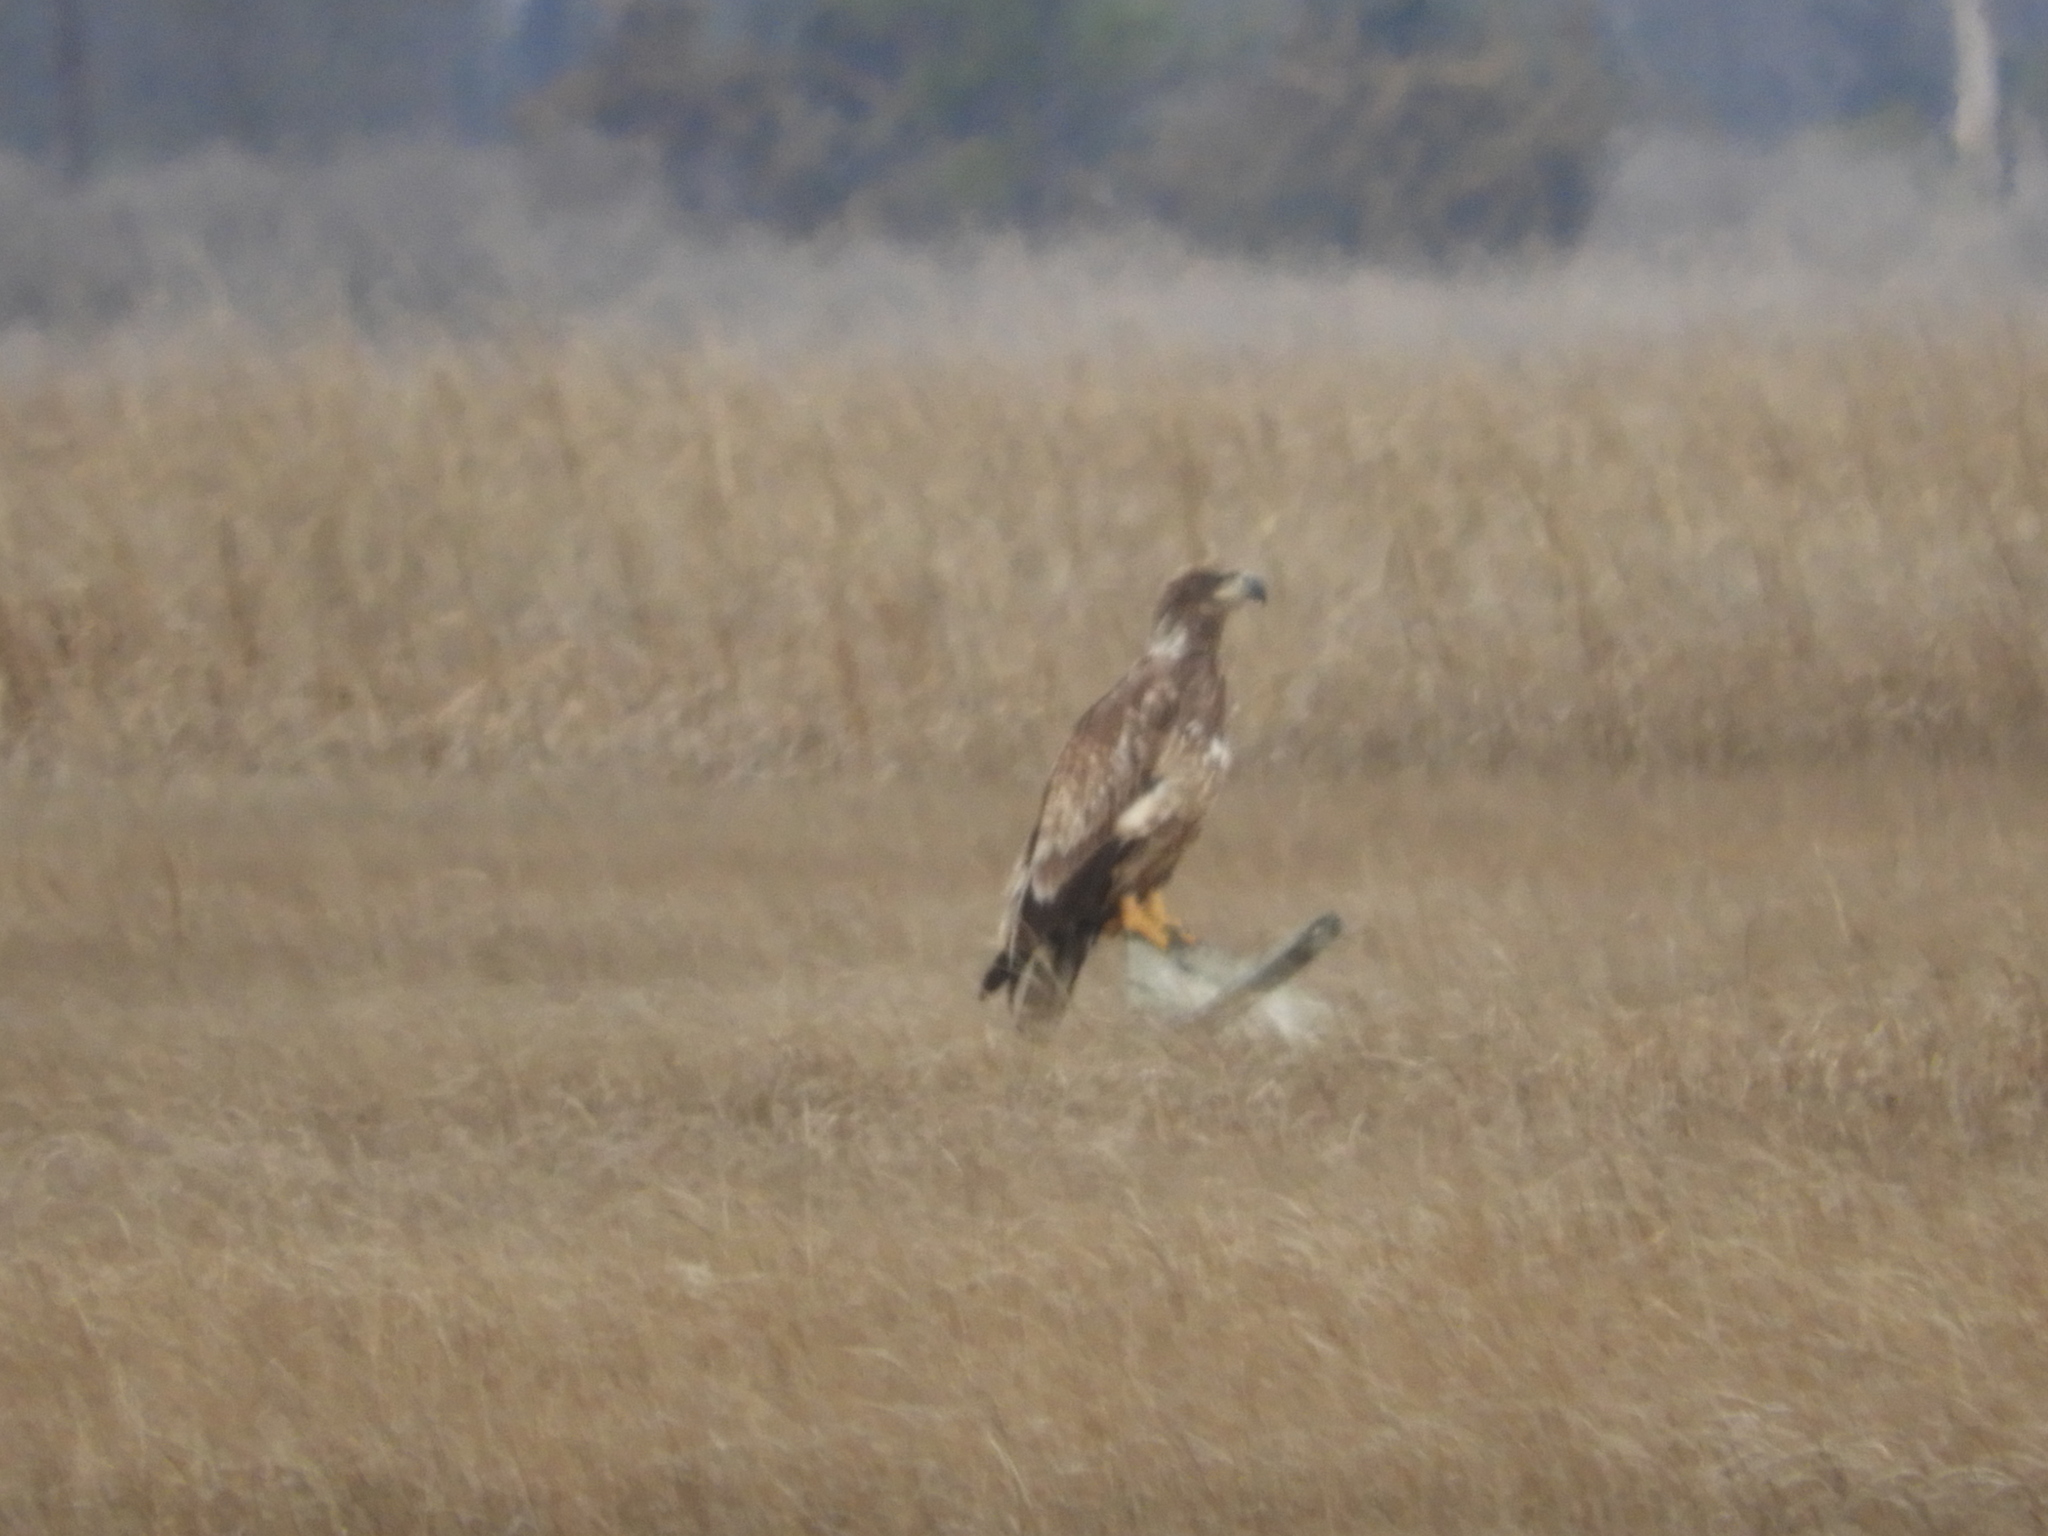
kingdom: Animalia
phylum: Chordata
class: Aves
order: Accipitriformes
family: Accipitridae
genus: Haliaeetus
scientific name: Haliaeetus leucocephalus
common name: Bald eagle
